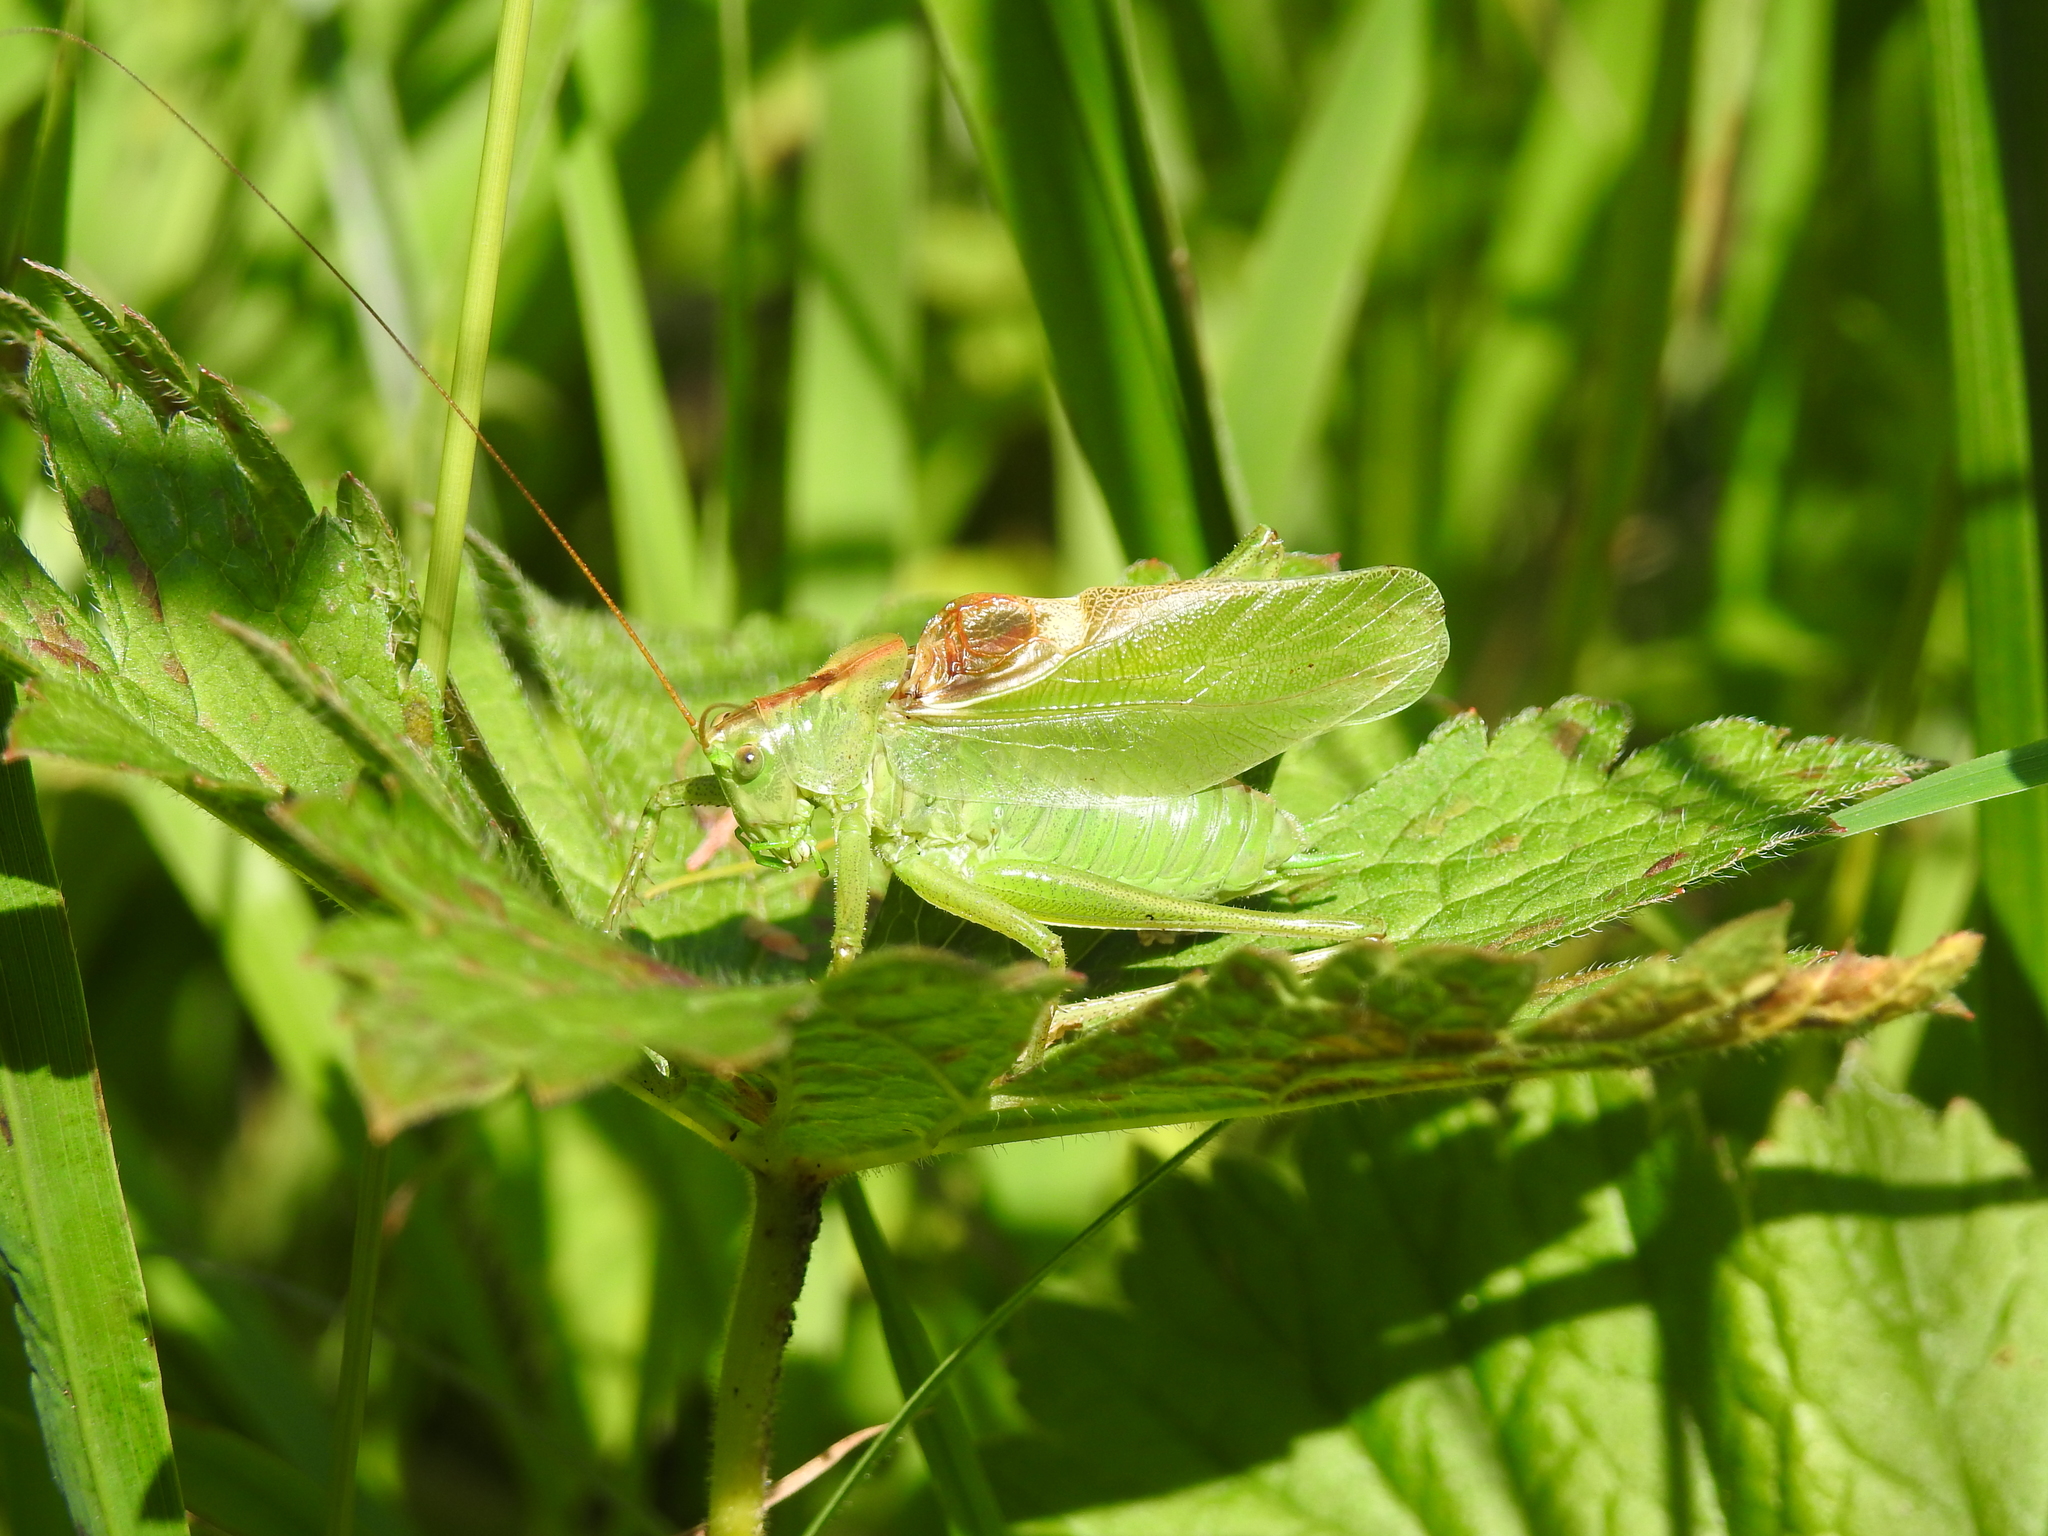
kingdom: Animalia
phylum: Arthropoda
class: Insecta
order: Orthoptera
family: Tettigoniidae
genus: Tettigonia
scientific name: Tettigonia cantans
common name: Upland green bush-cricket
